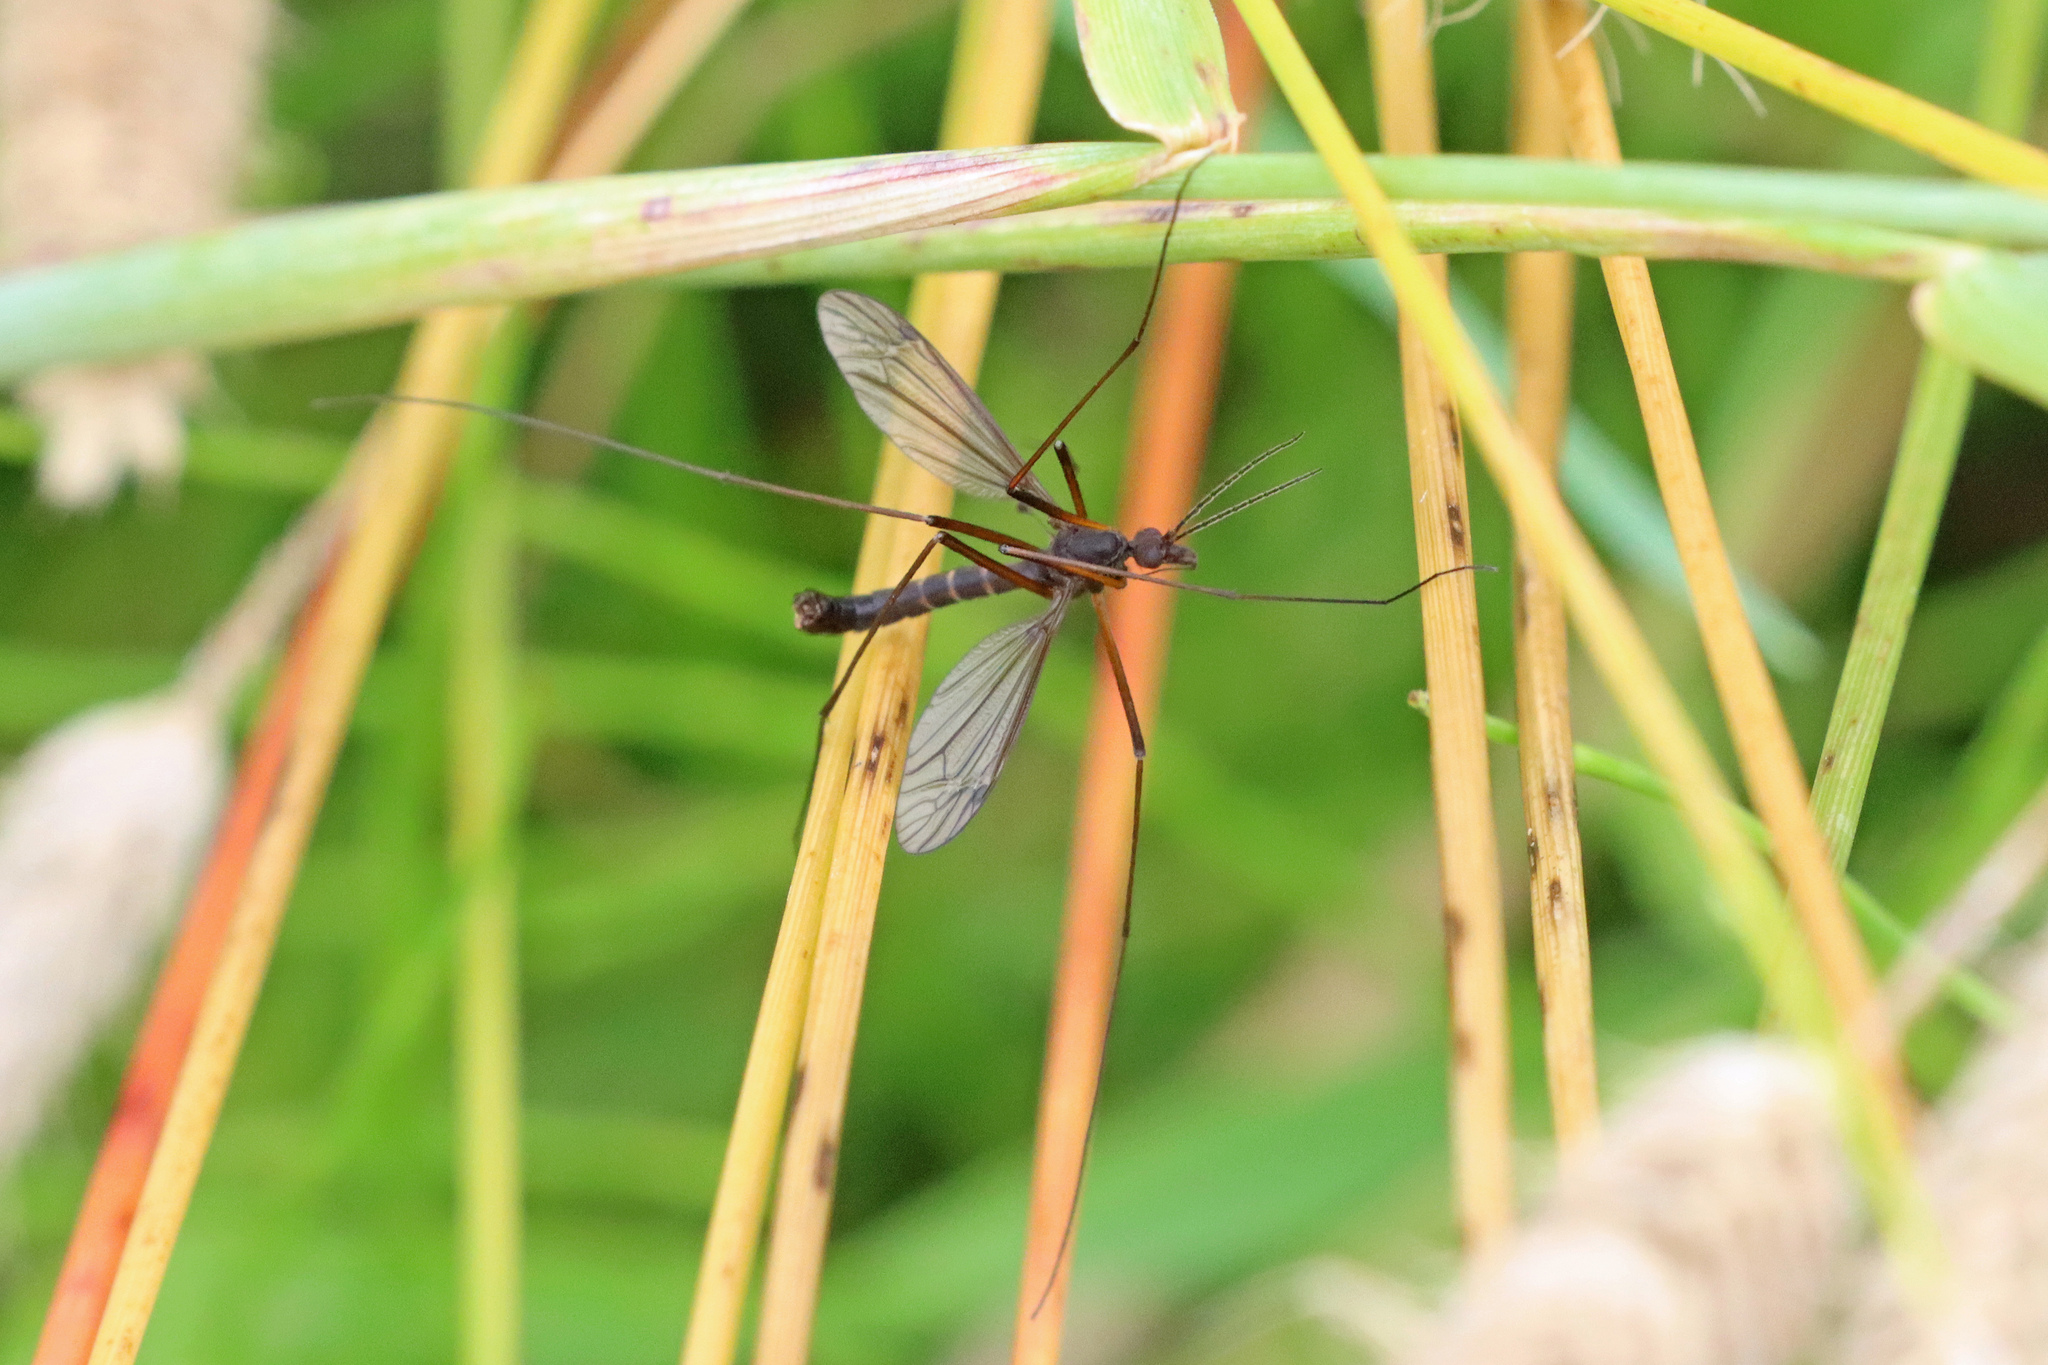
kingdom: Animalia
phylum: Arthropoda
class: Insecta
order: Diptera
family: Tipulidae
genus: Nigrotipula
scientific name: Nigrotipula nigra
